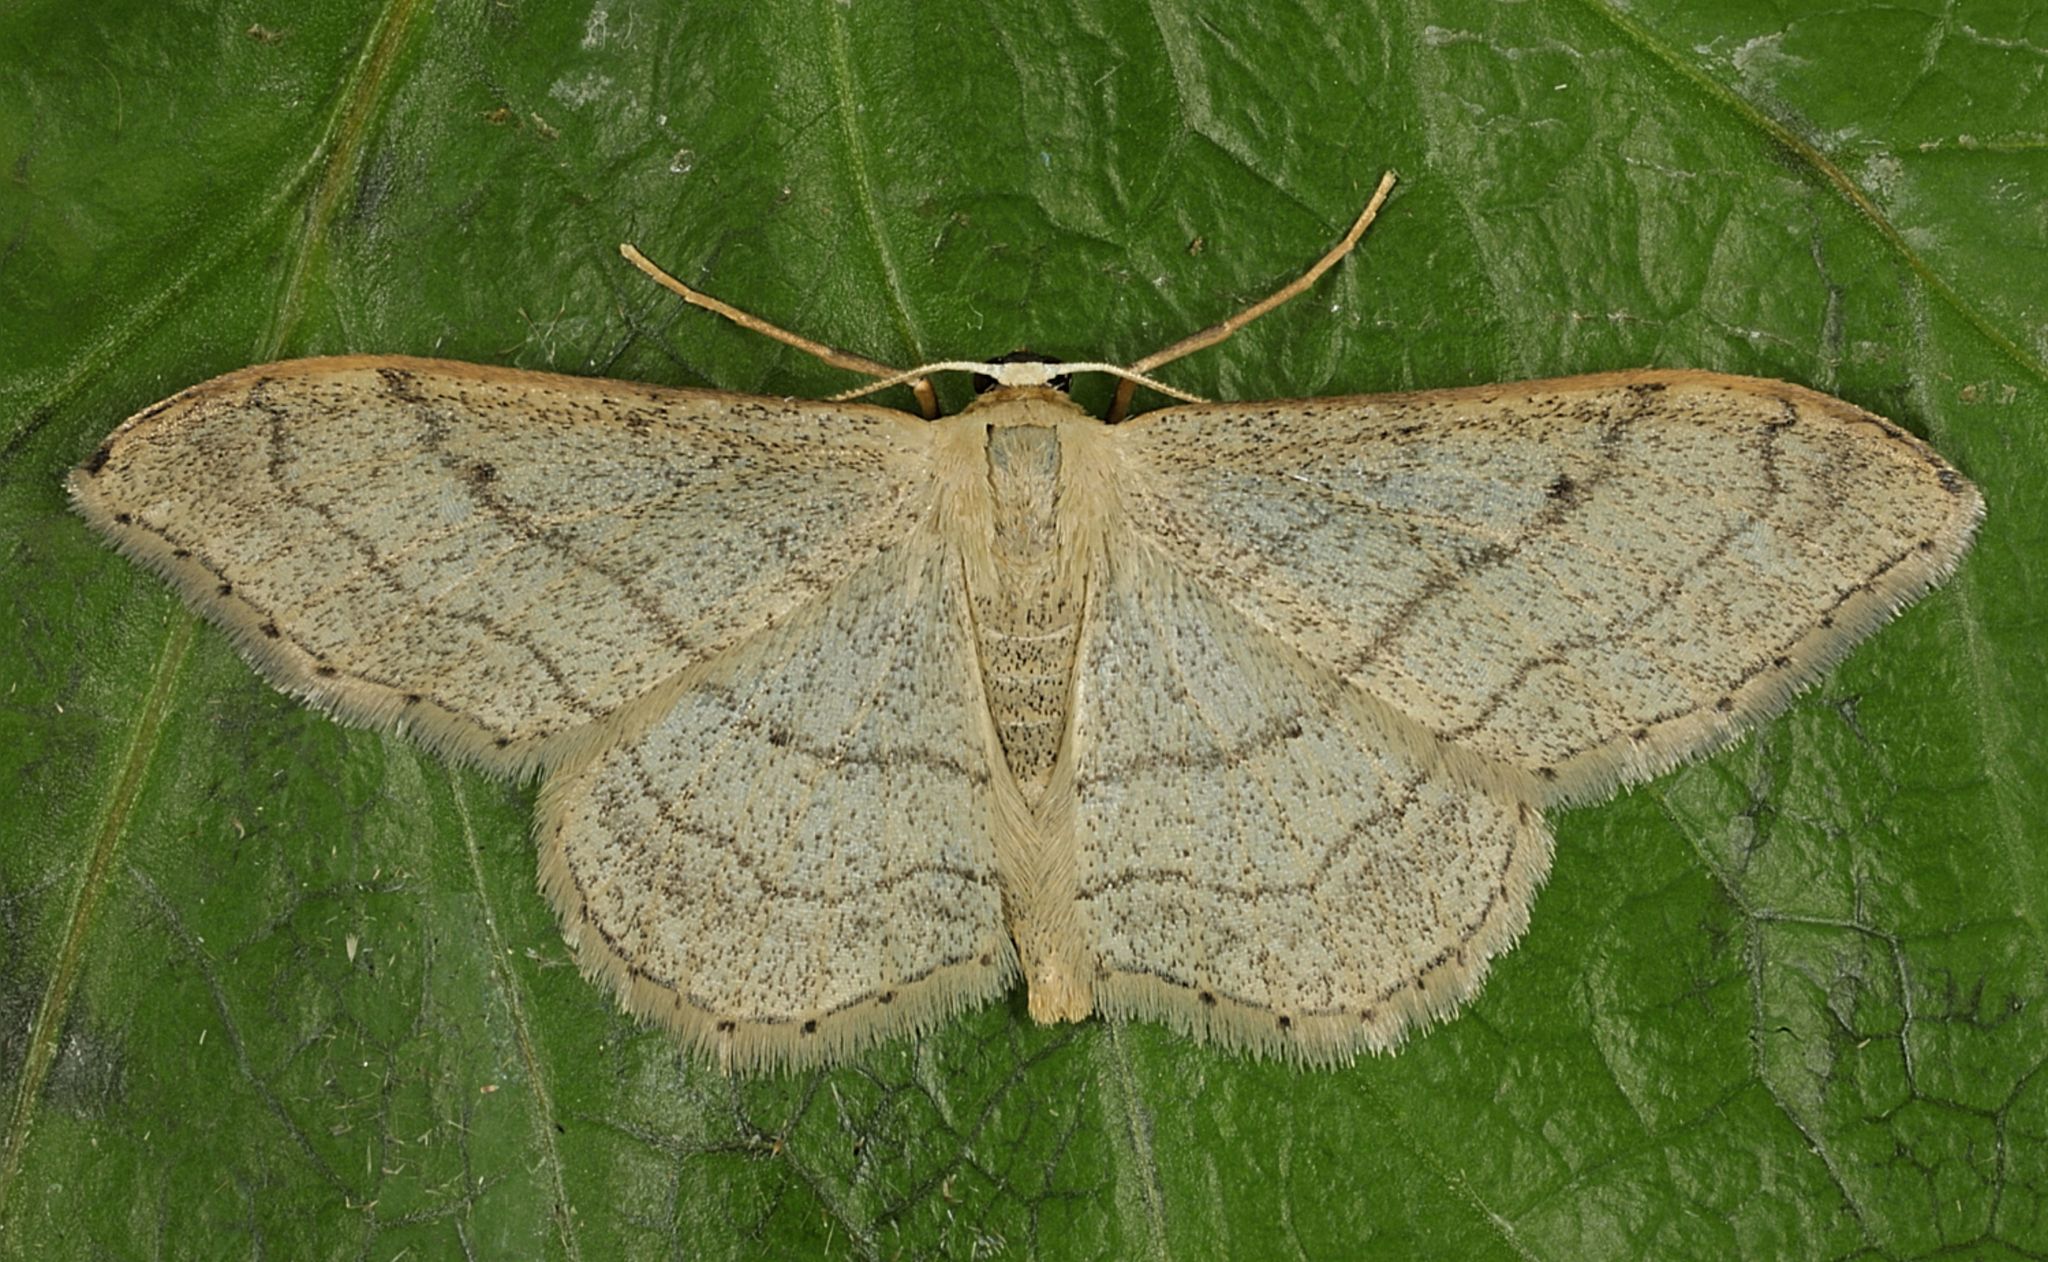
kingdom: Animalia
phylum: Arthropoda
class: Insecta
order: Lepidoptera
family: Geometridae
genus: Idaea
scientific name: Idaea aversata
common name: Riband wave
